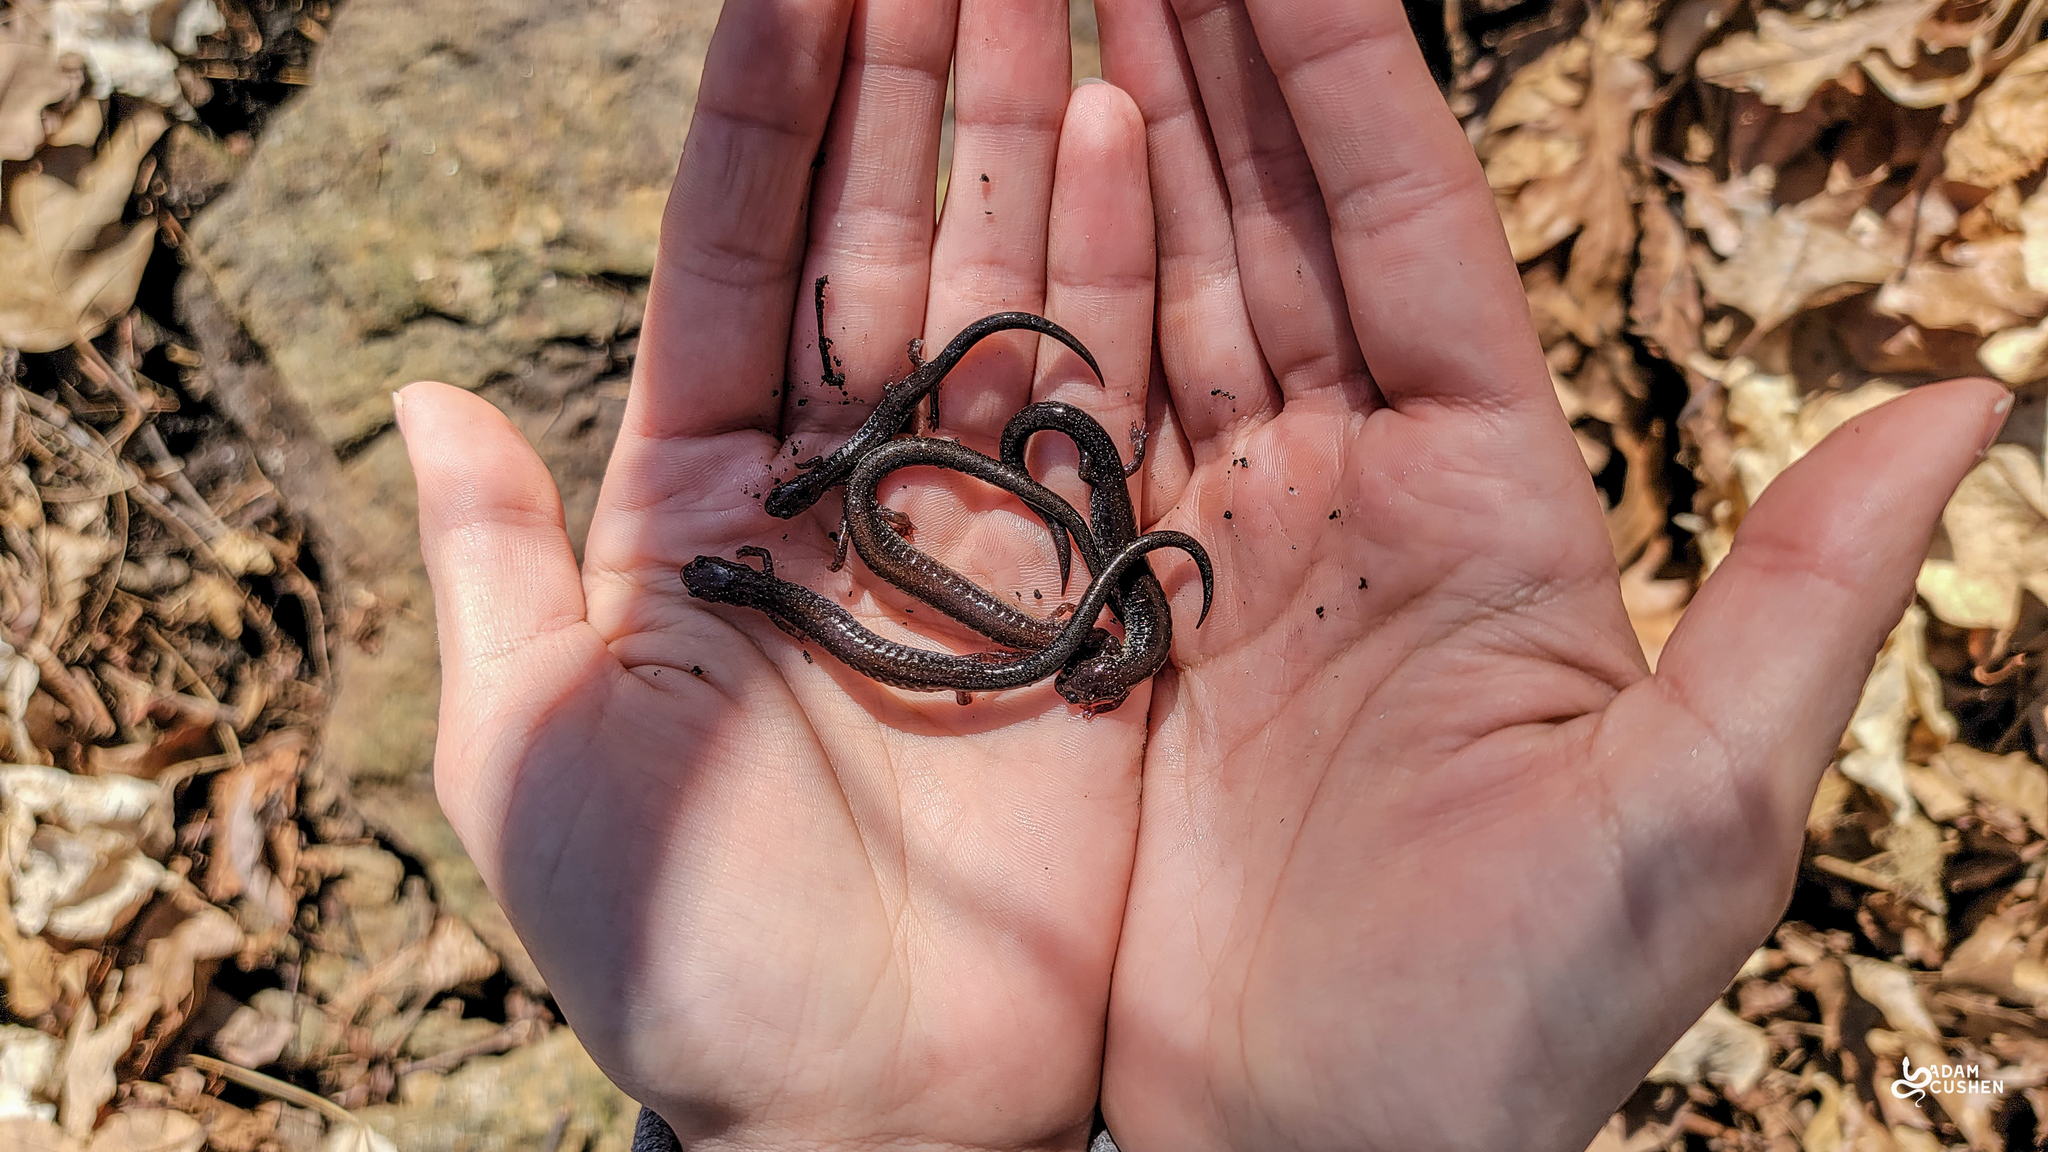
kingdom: Animalia
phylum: Chordata
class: Amphibia
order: Caudata
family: Plethodontidae
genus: Plethodon
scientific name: Plethodon cinereus
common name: Redback salamander
